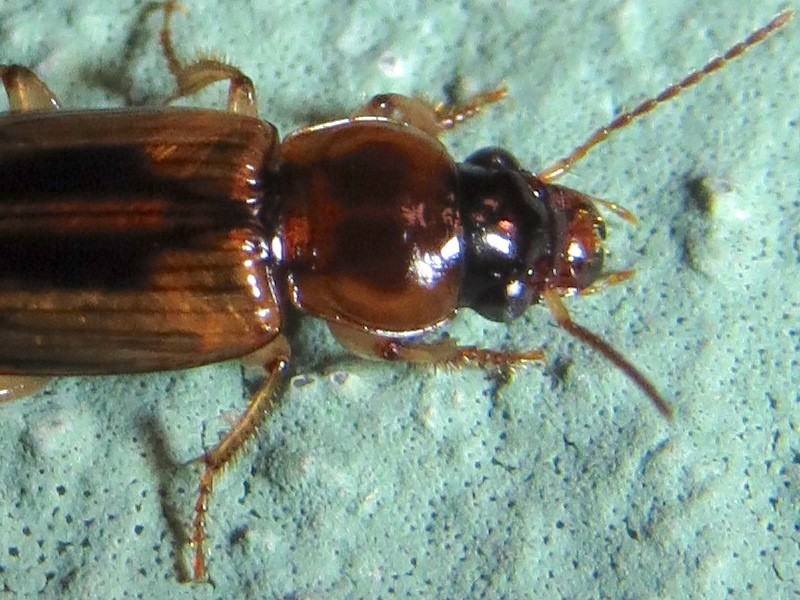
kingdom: Animalia
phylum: Arthropoda
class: Insecta
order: Coleoptera
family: Carabidae
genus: Stenolophus
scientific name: Stenolophus lecontei
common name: Leconte's seedcorn beetle
